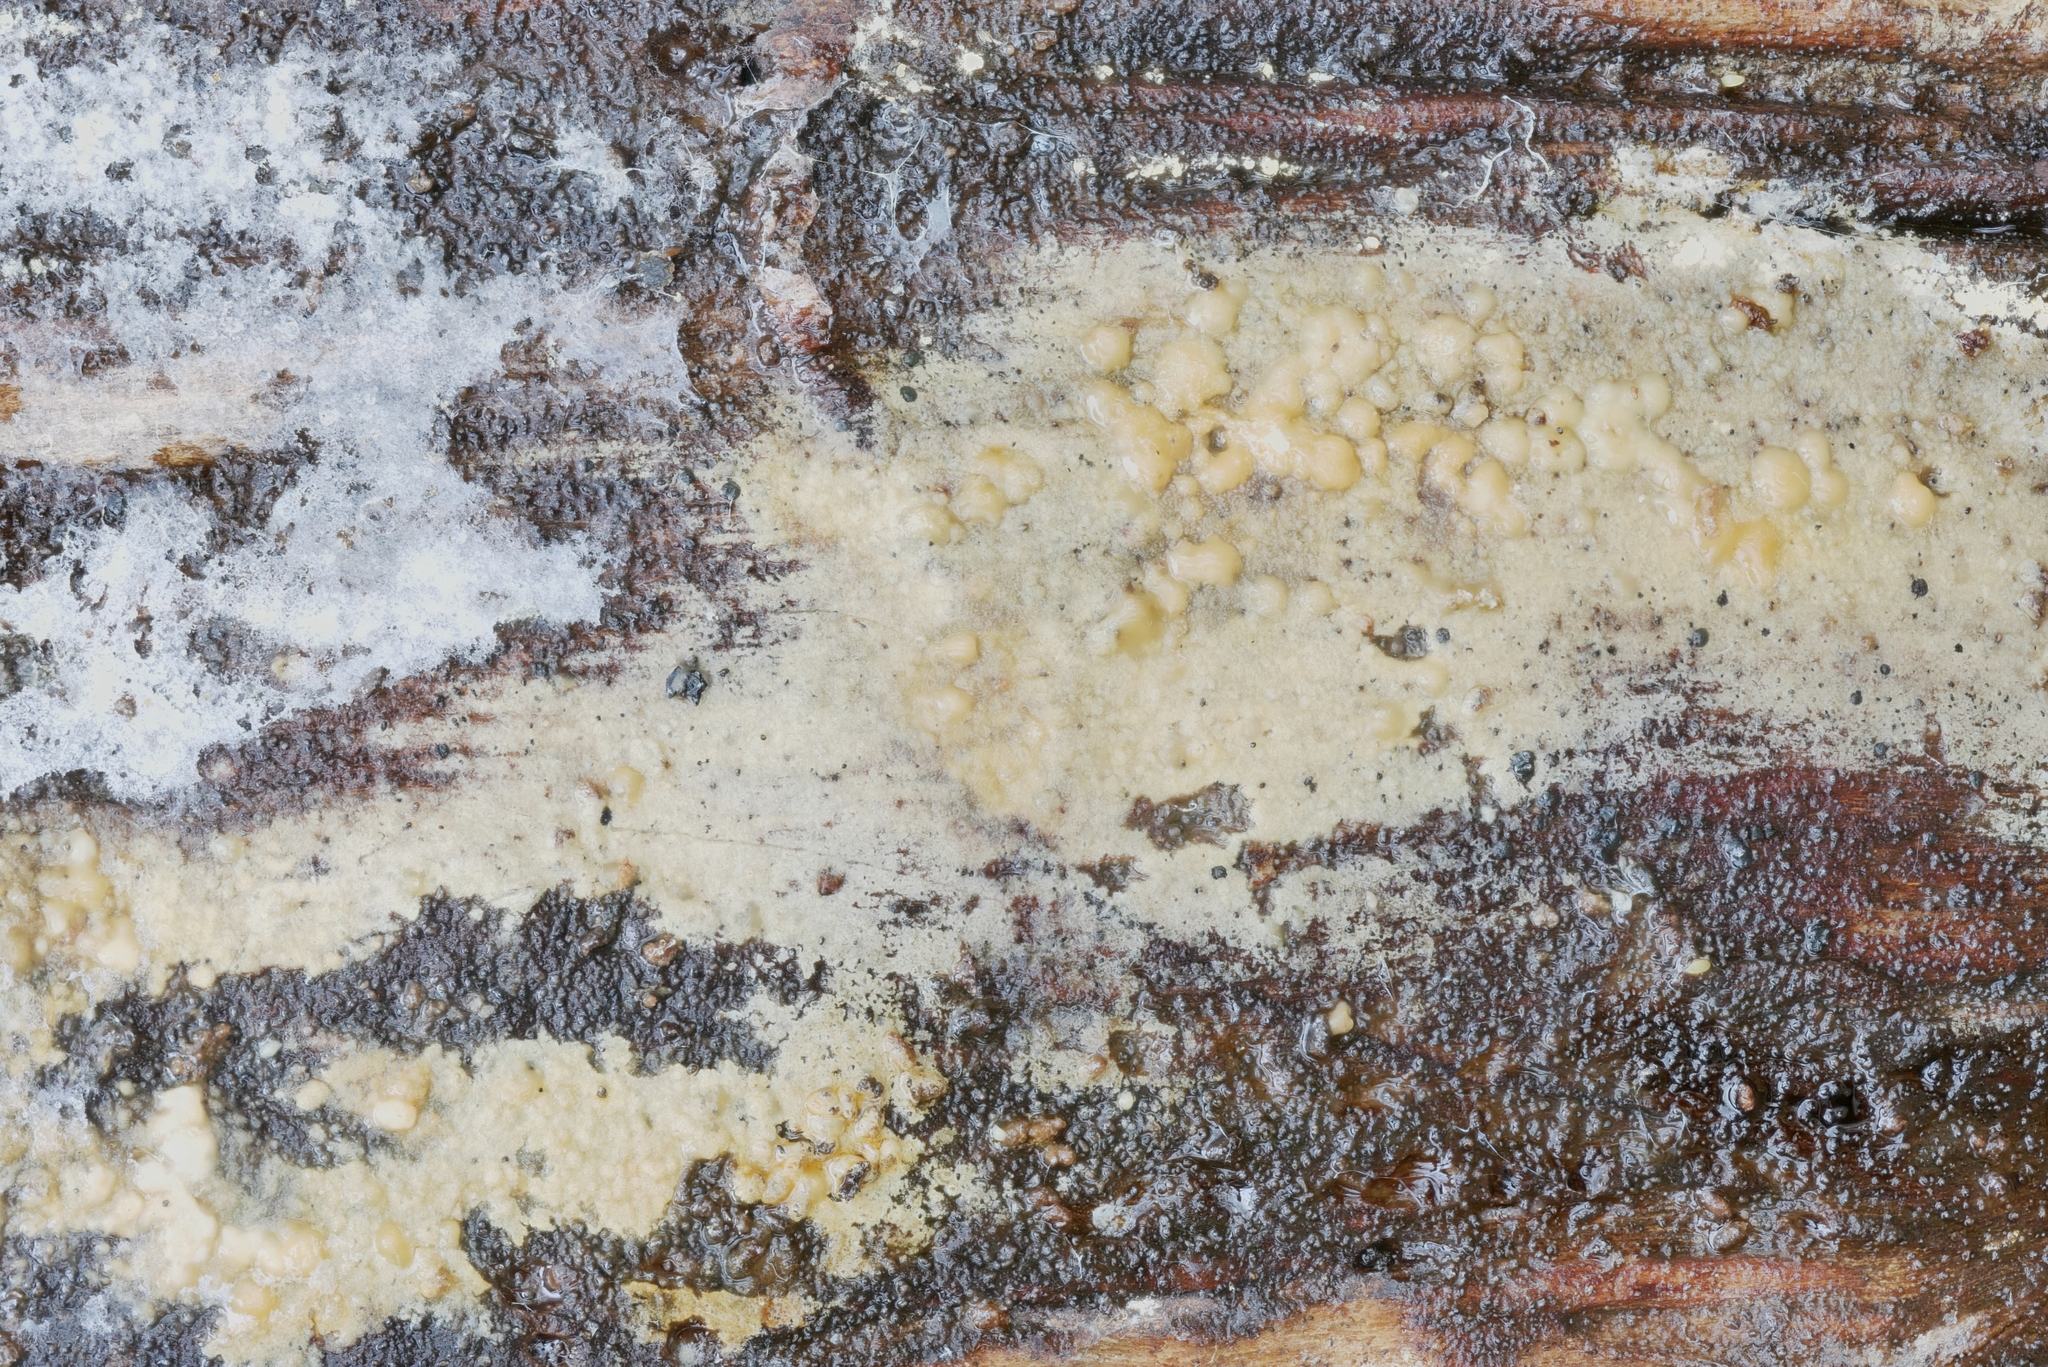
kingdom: Fungi
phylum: Basidiomycota
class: Agaricomycetes
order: Hymenochaetales
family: Rickenellaceae
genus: Peniophorella
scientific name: Peniophorella pubera
